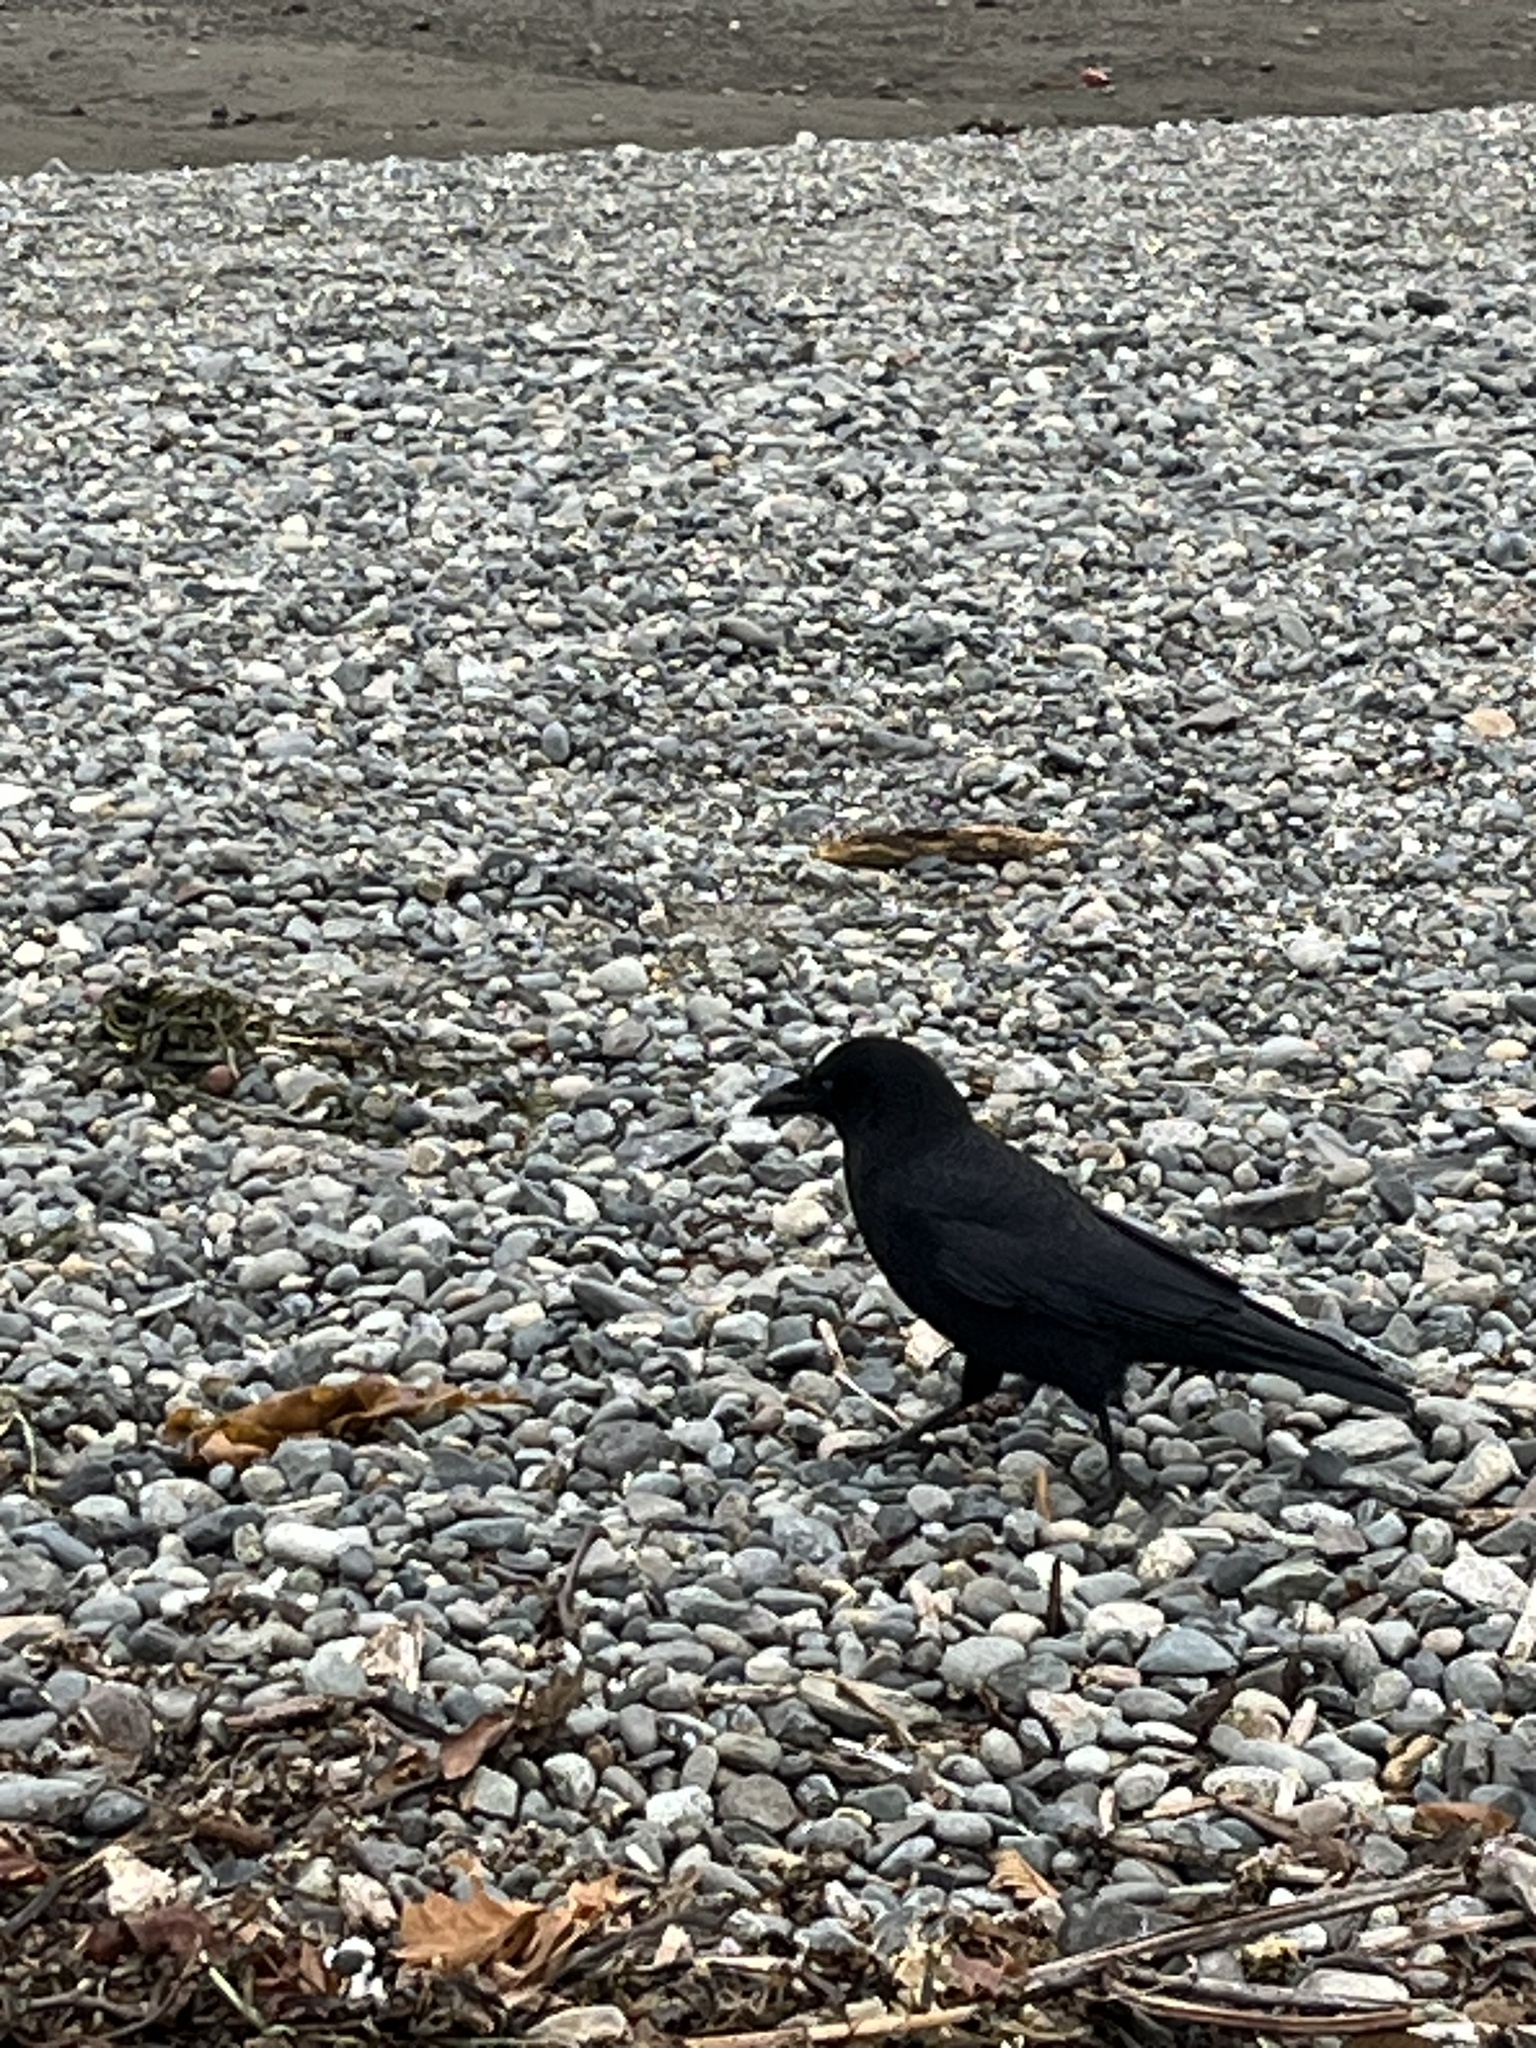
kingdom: Animalia
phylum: Chordata
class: Aves
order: Passeriformes
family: Corvidae
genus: Corvus
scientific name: Corvus brachyrhynchos
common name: American crow
